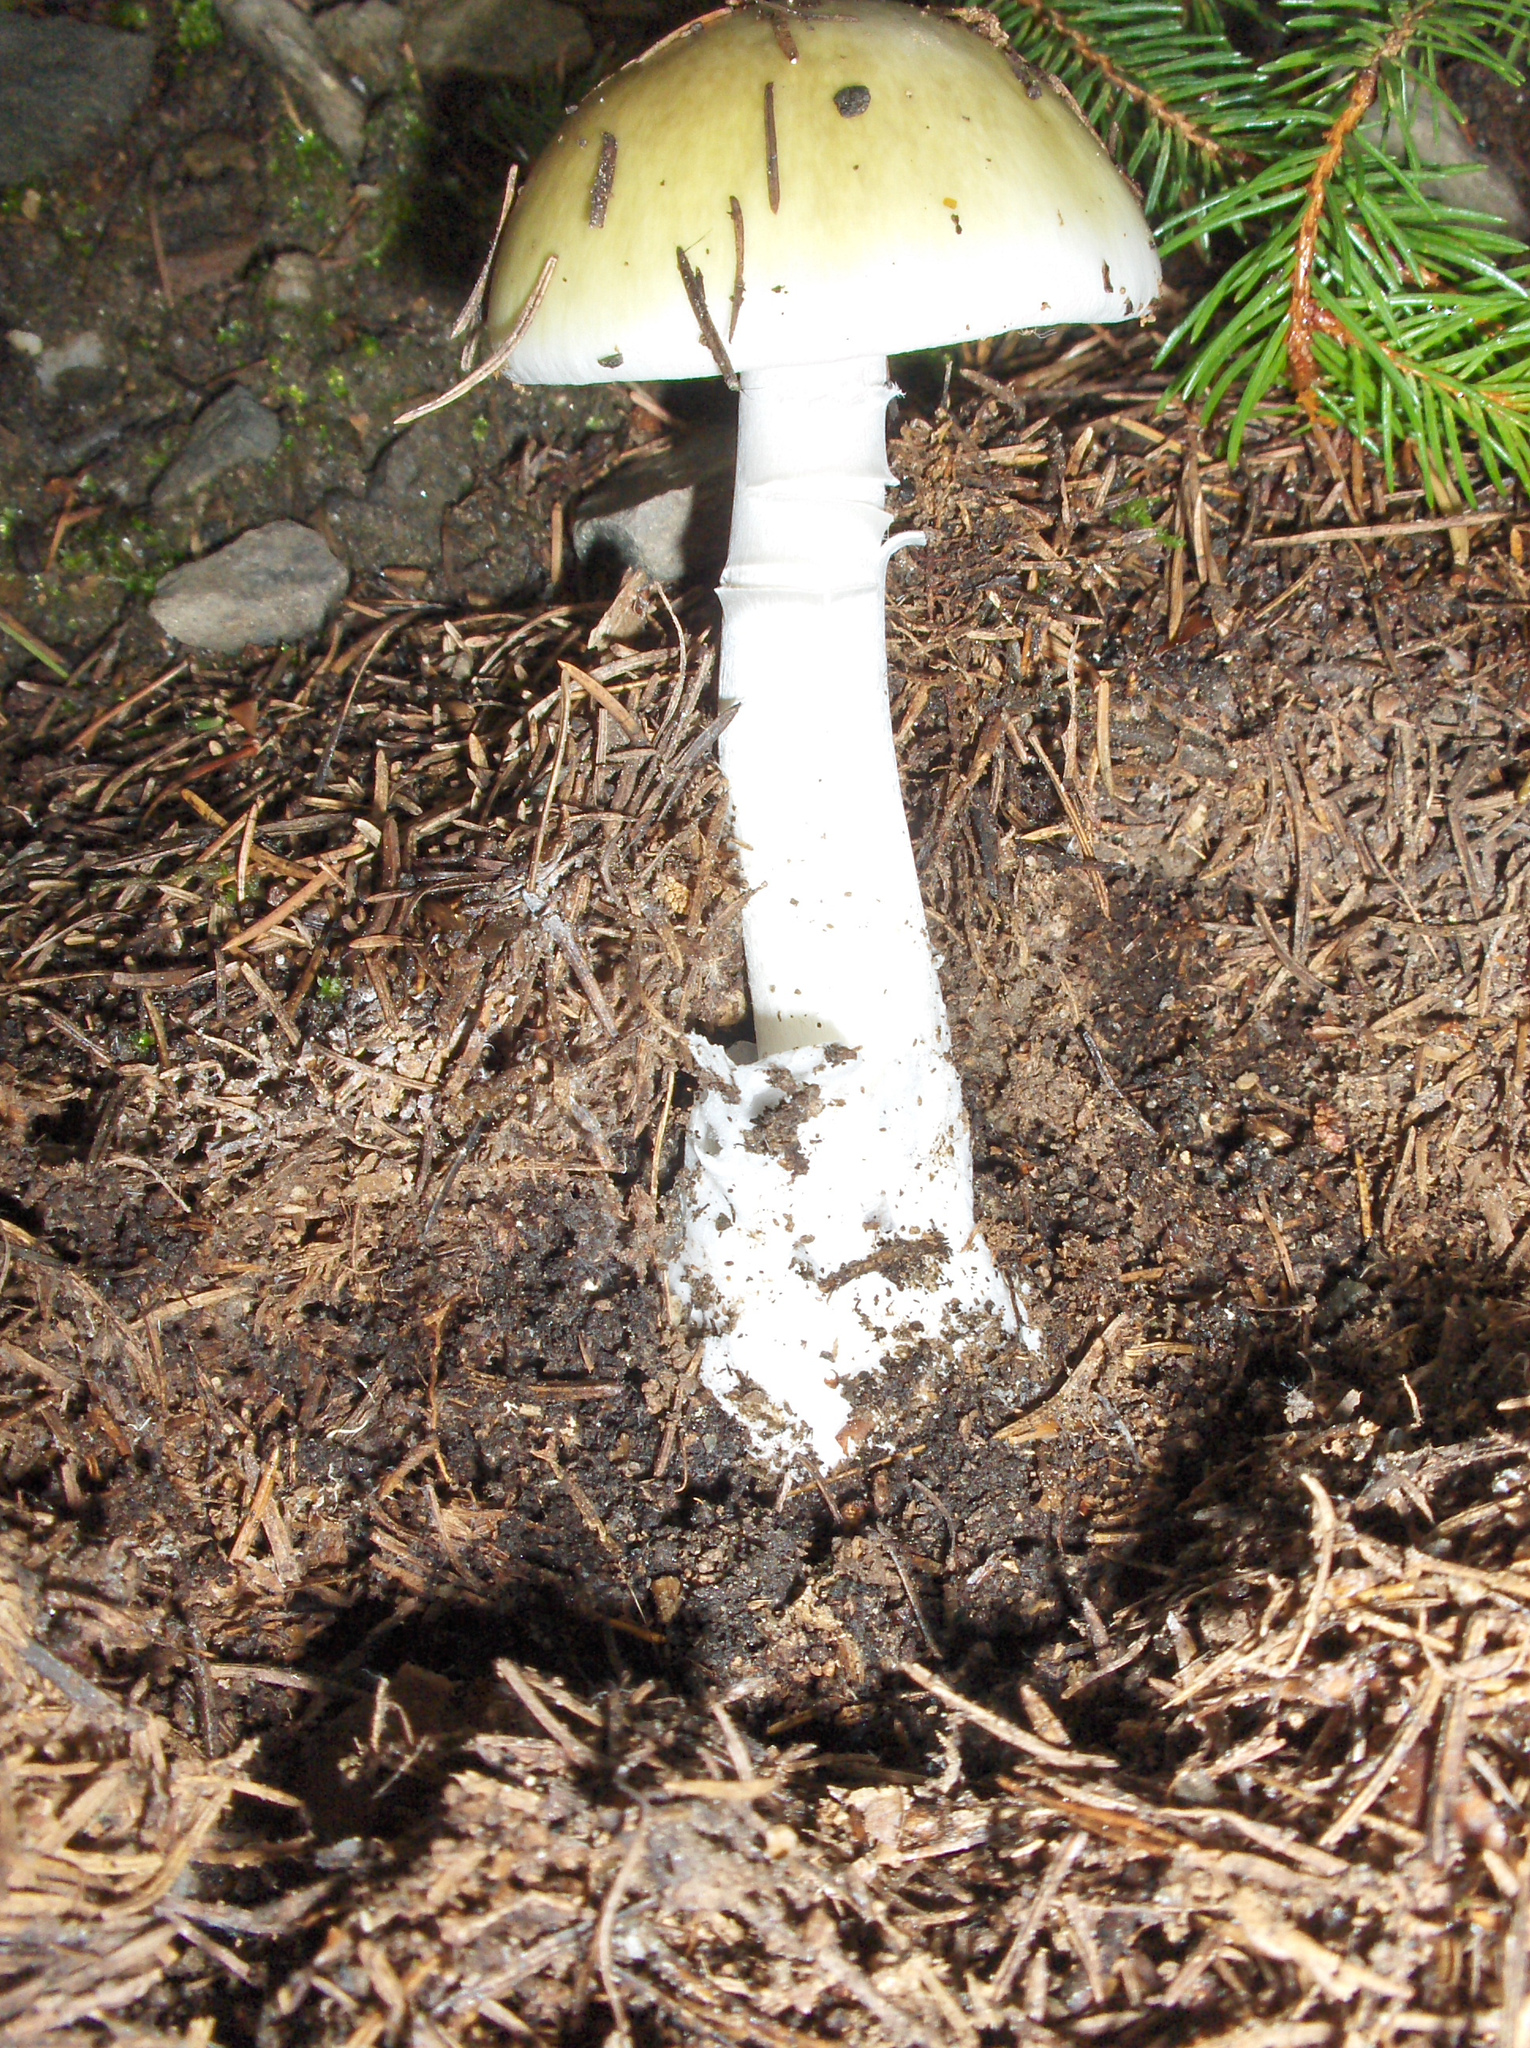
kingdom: Fungi
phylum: Basidiomycota
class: Agaricomycetes
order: Agaricales
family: Amanitaceae
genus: Amanita
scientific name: Amanita phalloides
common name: Death cap
